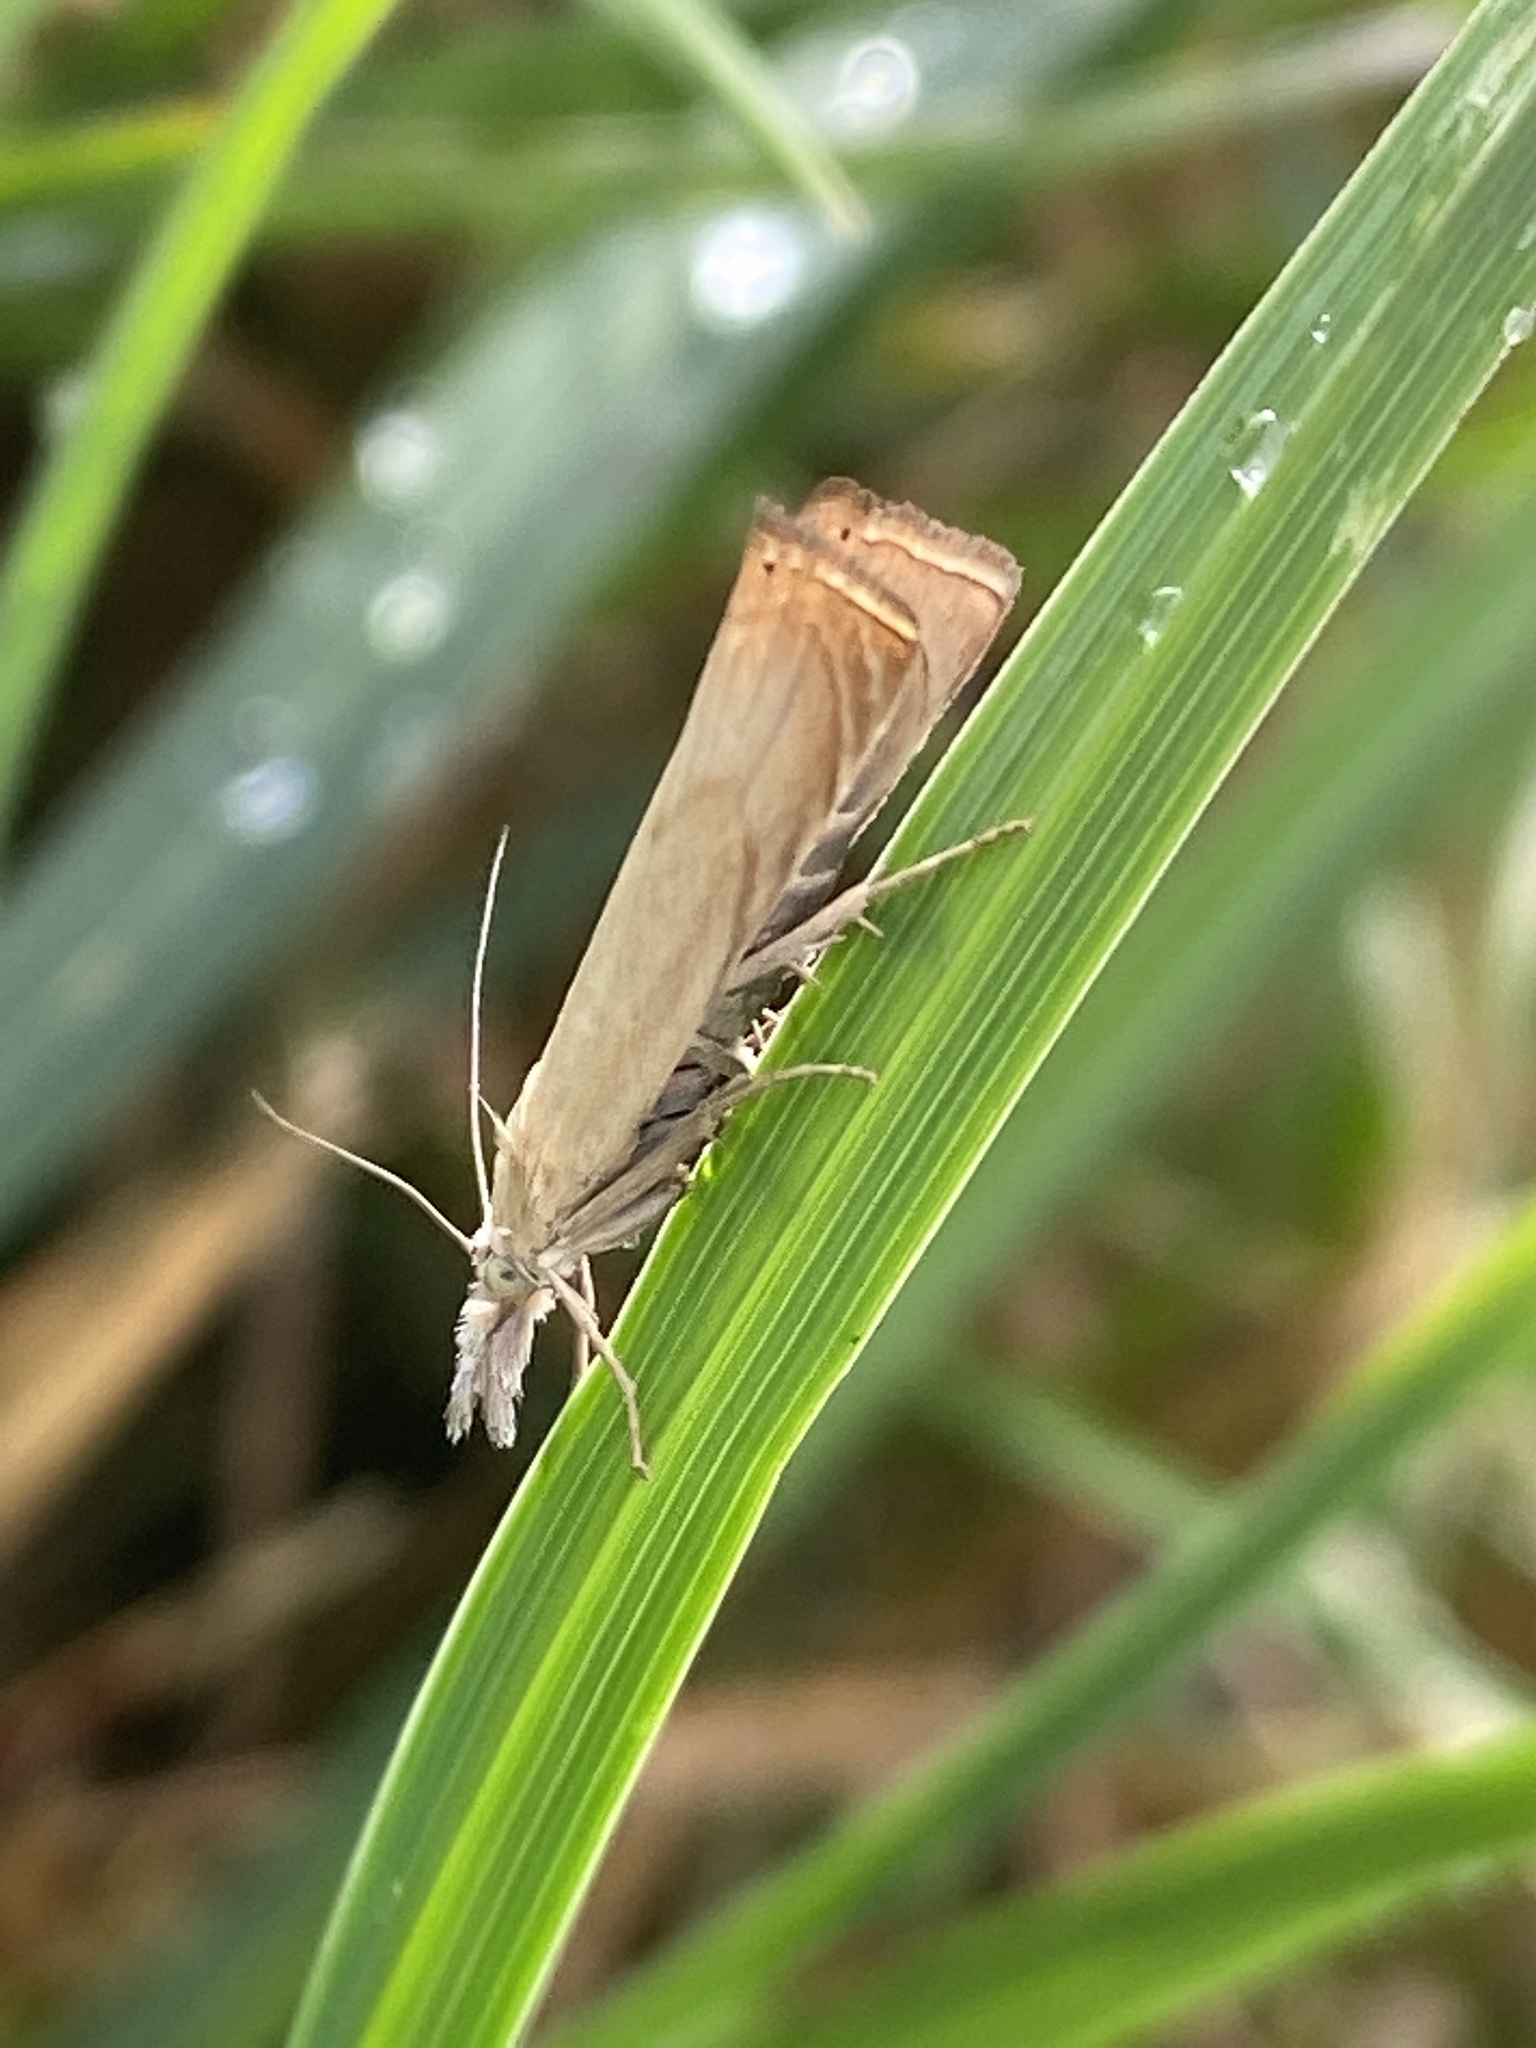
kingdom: Animalia
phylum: Arthropoda
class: Insecta
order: Lepidoptera
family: Crambidae
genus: Chrysoteuchia
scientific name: Chrysoteuchia culmella
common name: Garden grass-veneer
